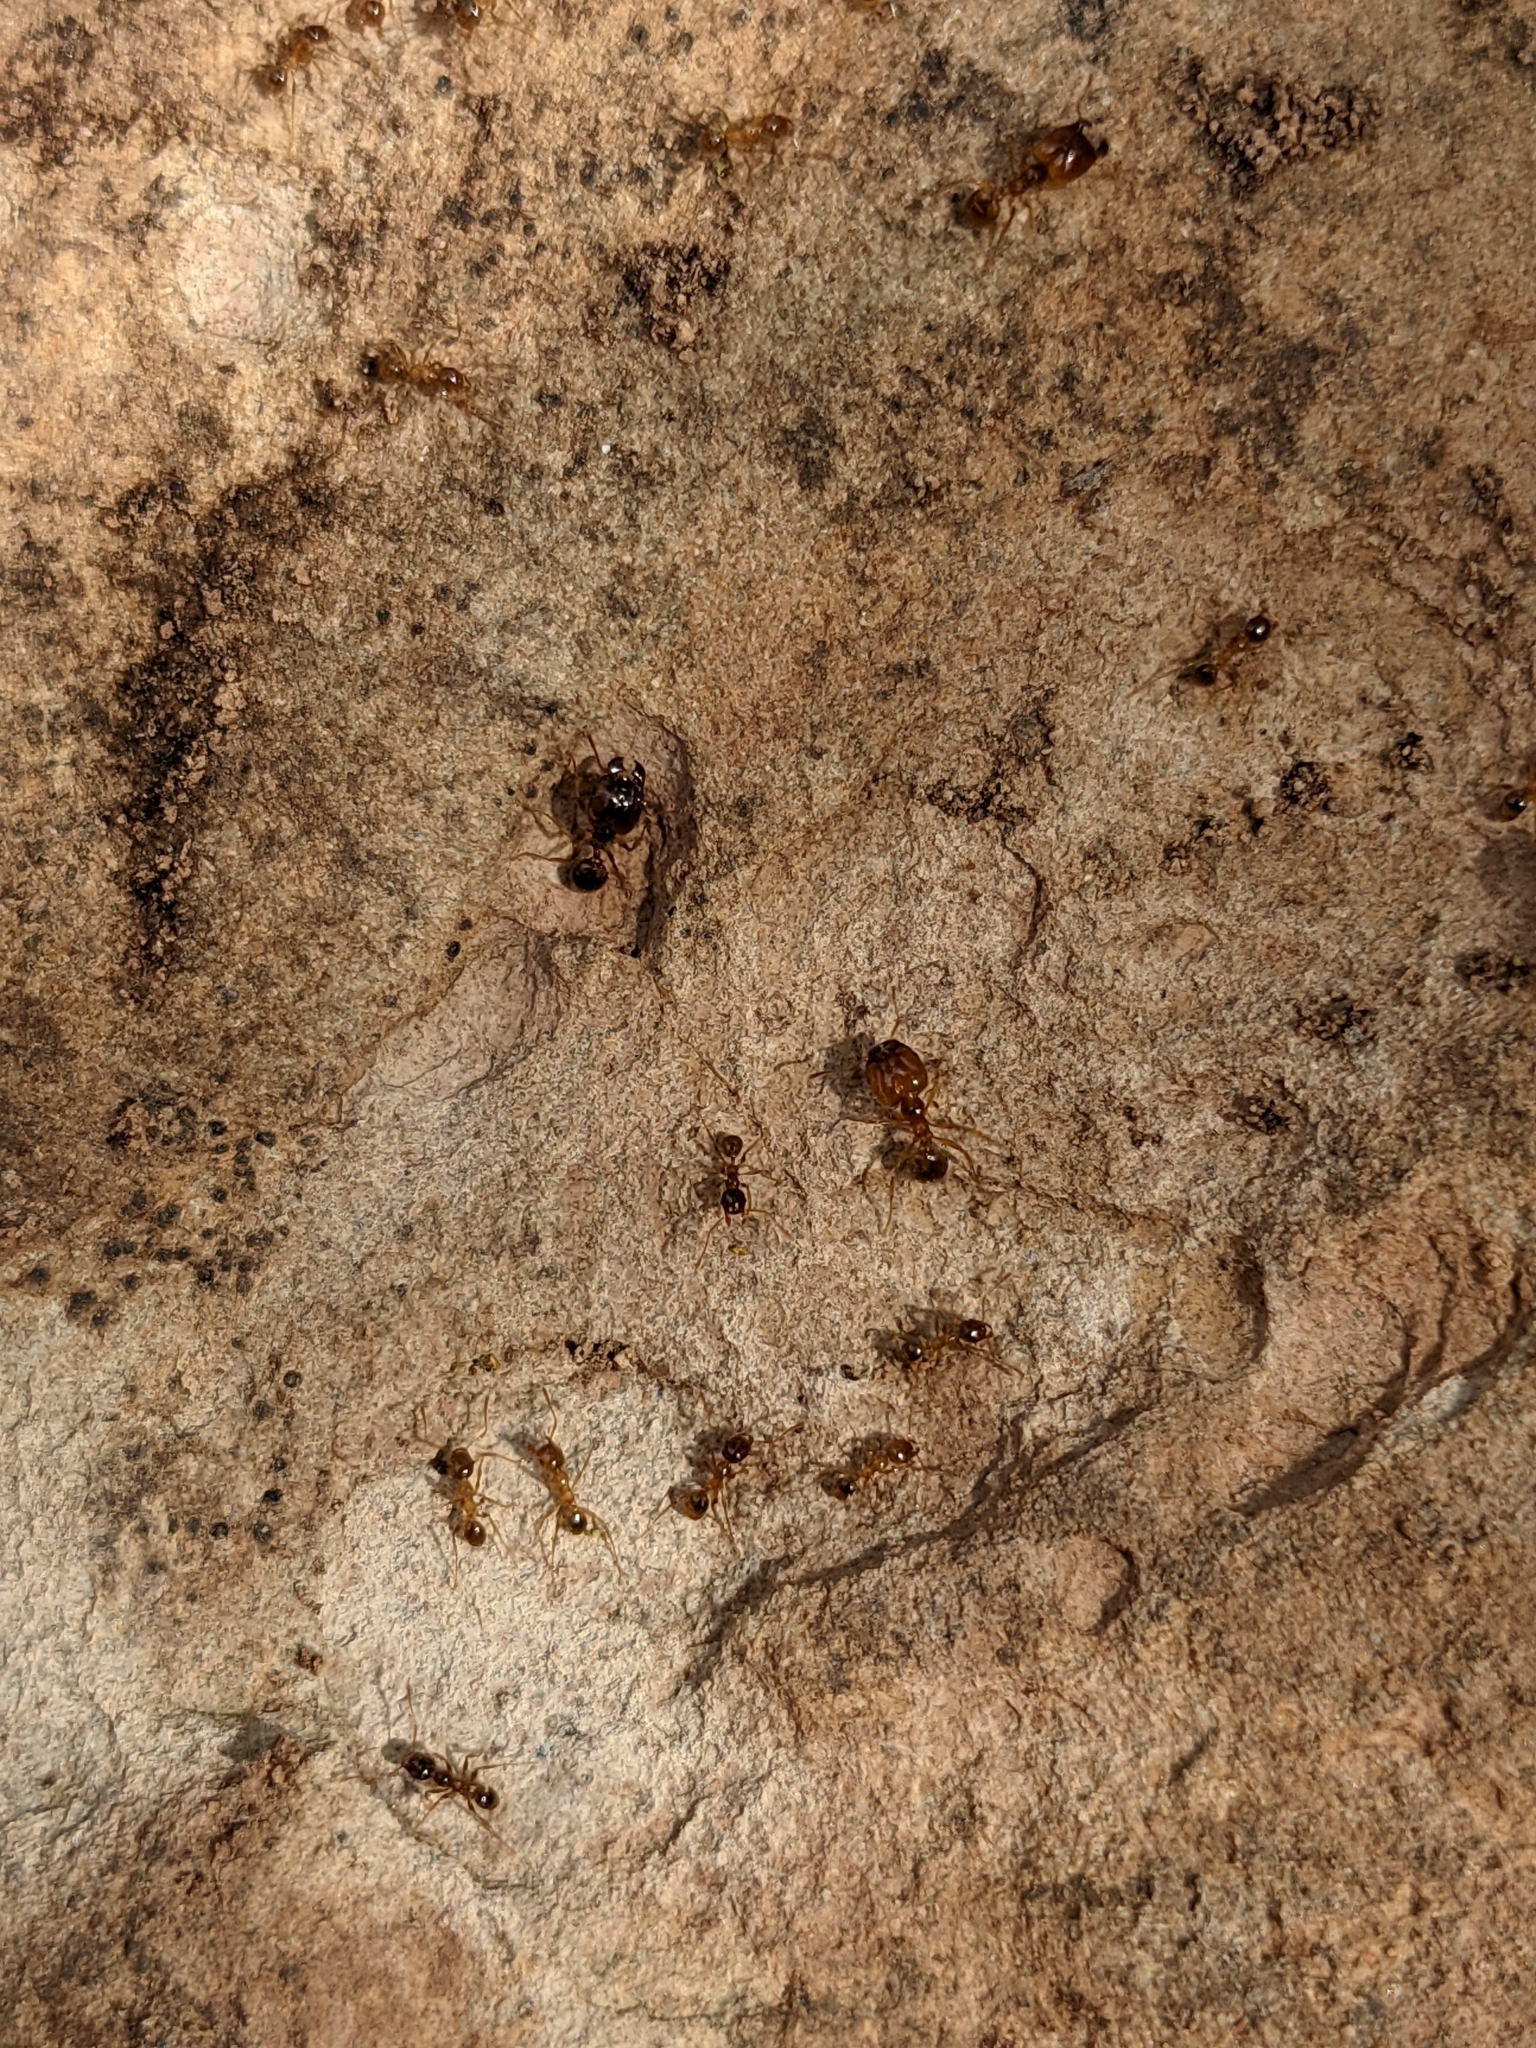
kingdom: Animalia
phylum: Arthropoda
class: Insecta
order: Hymenoptera
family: Formicidae
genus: Pheidole
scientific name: Pheidole pallidula
